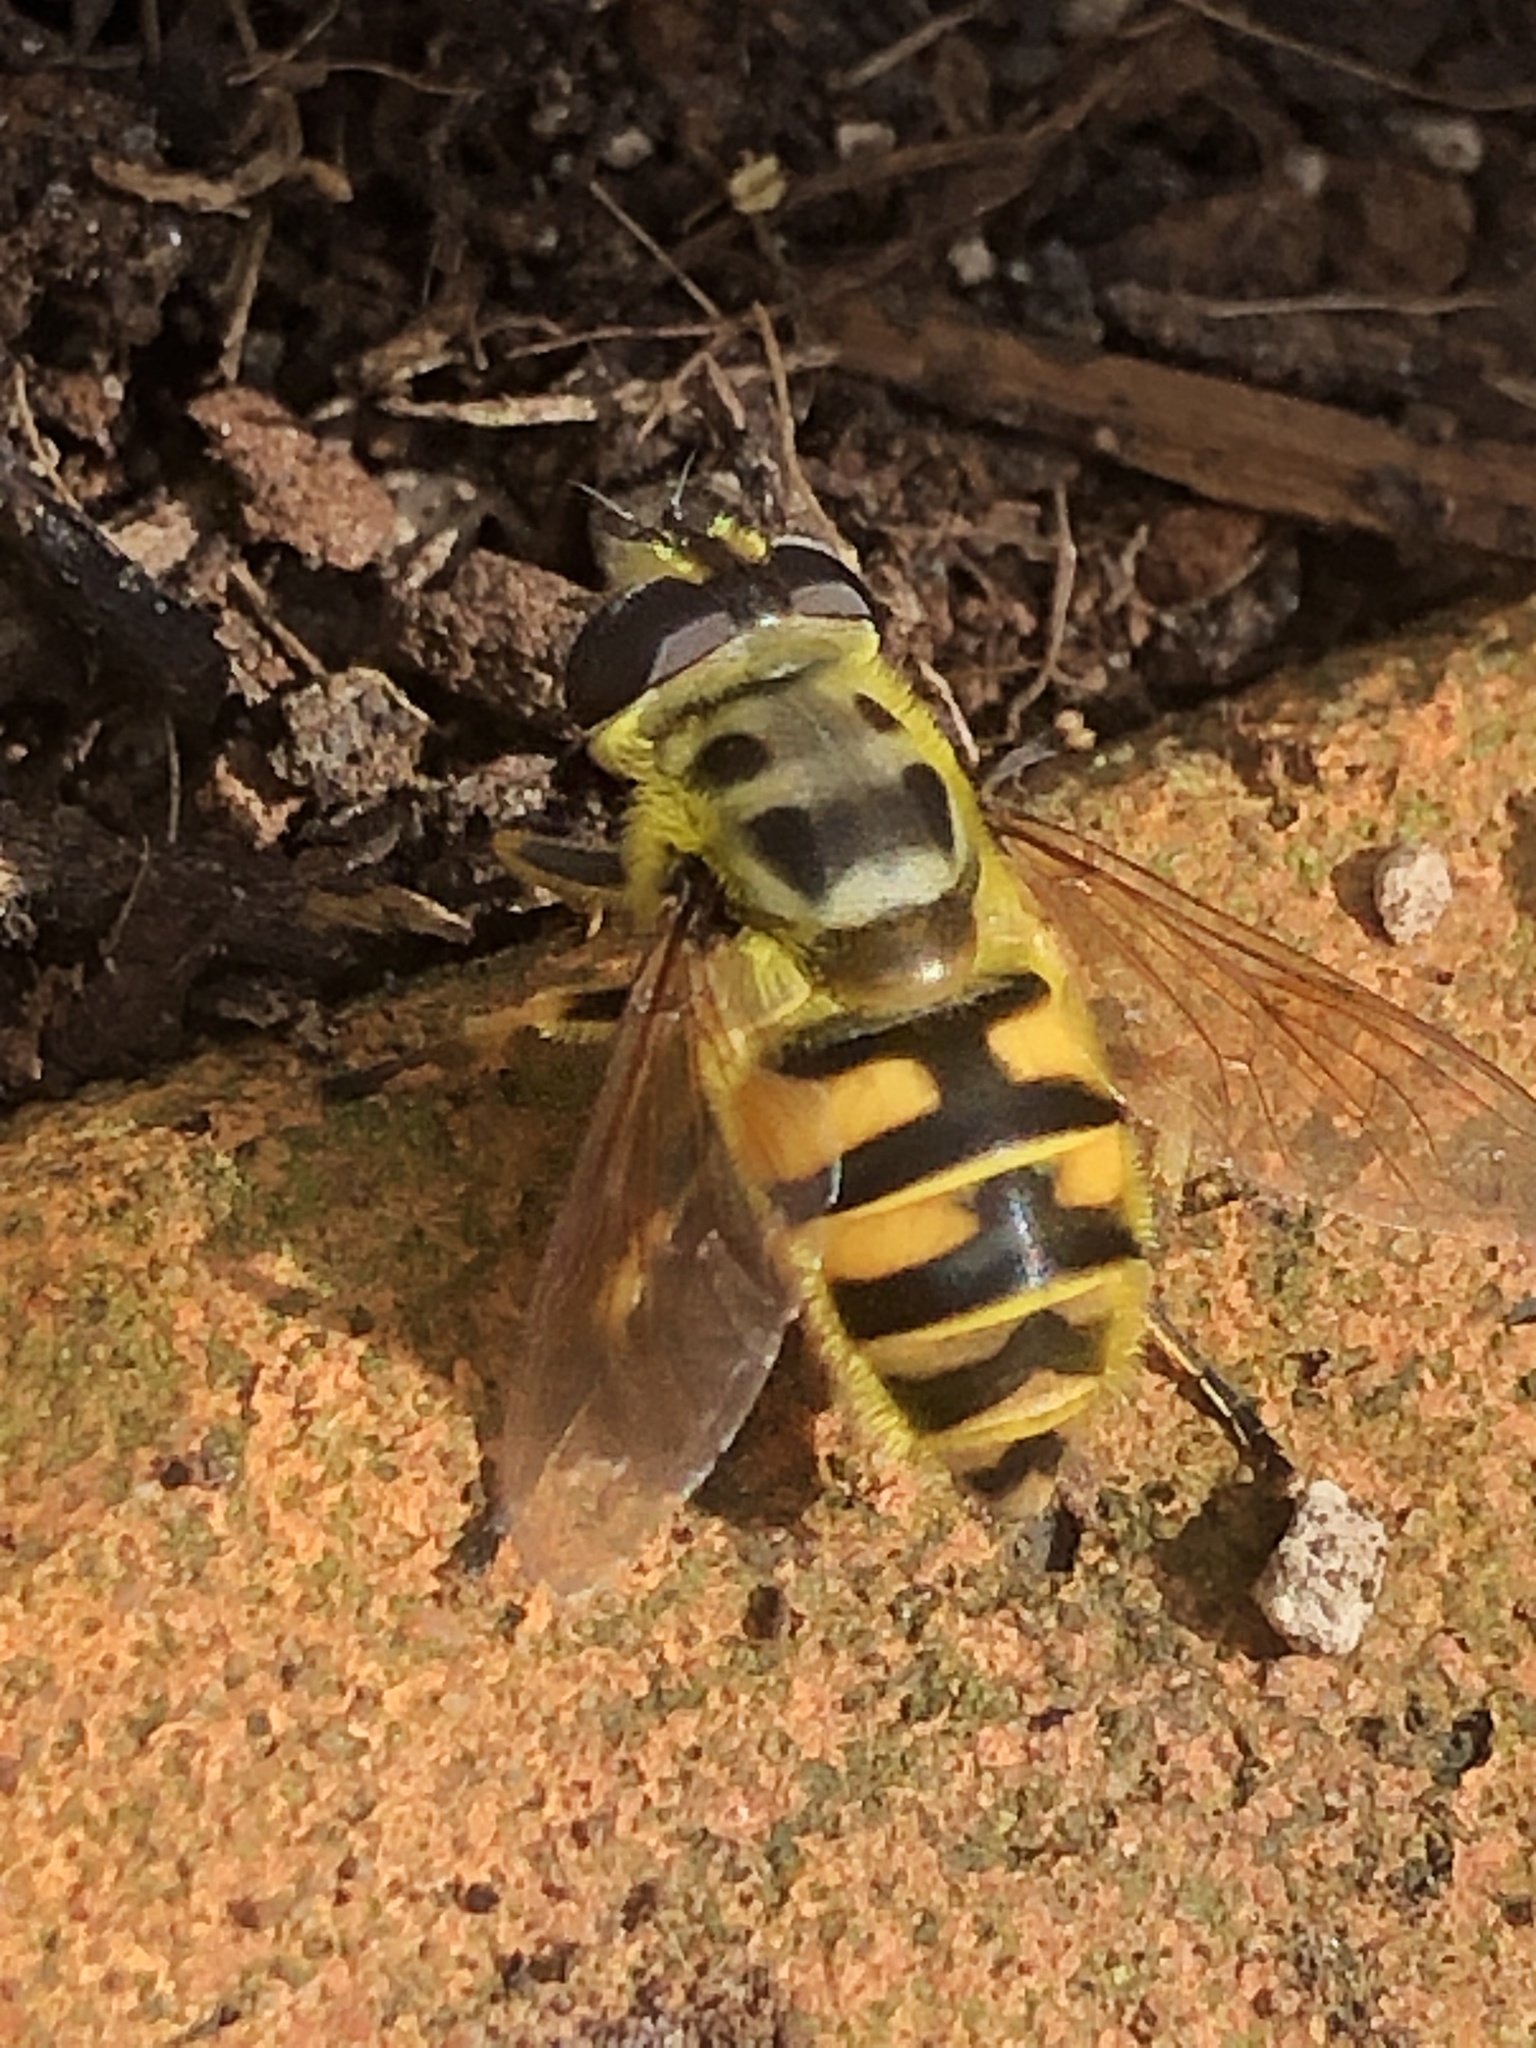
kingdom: Animalia
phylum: Arthropoda
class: Insecta
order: Diptera
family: Syrphidae
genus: Myathropa
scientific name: Myathropa florea
